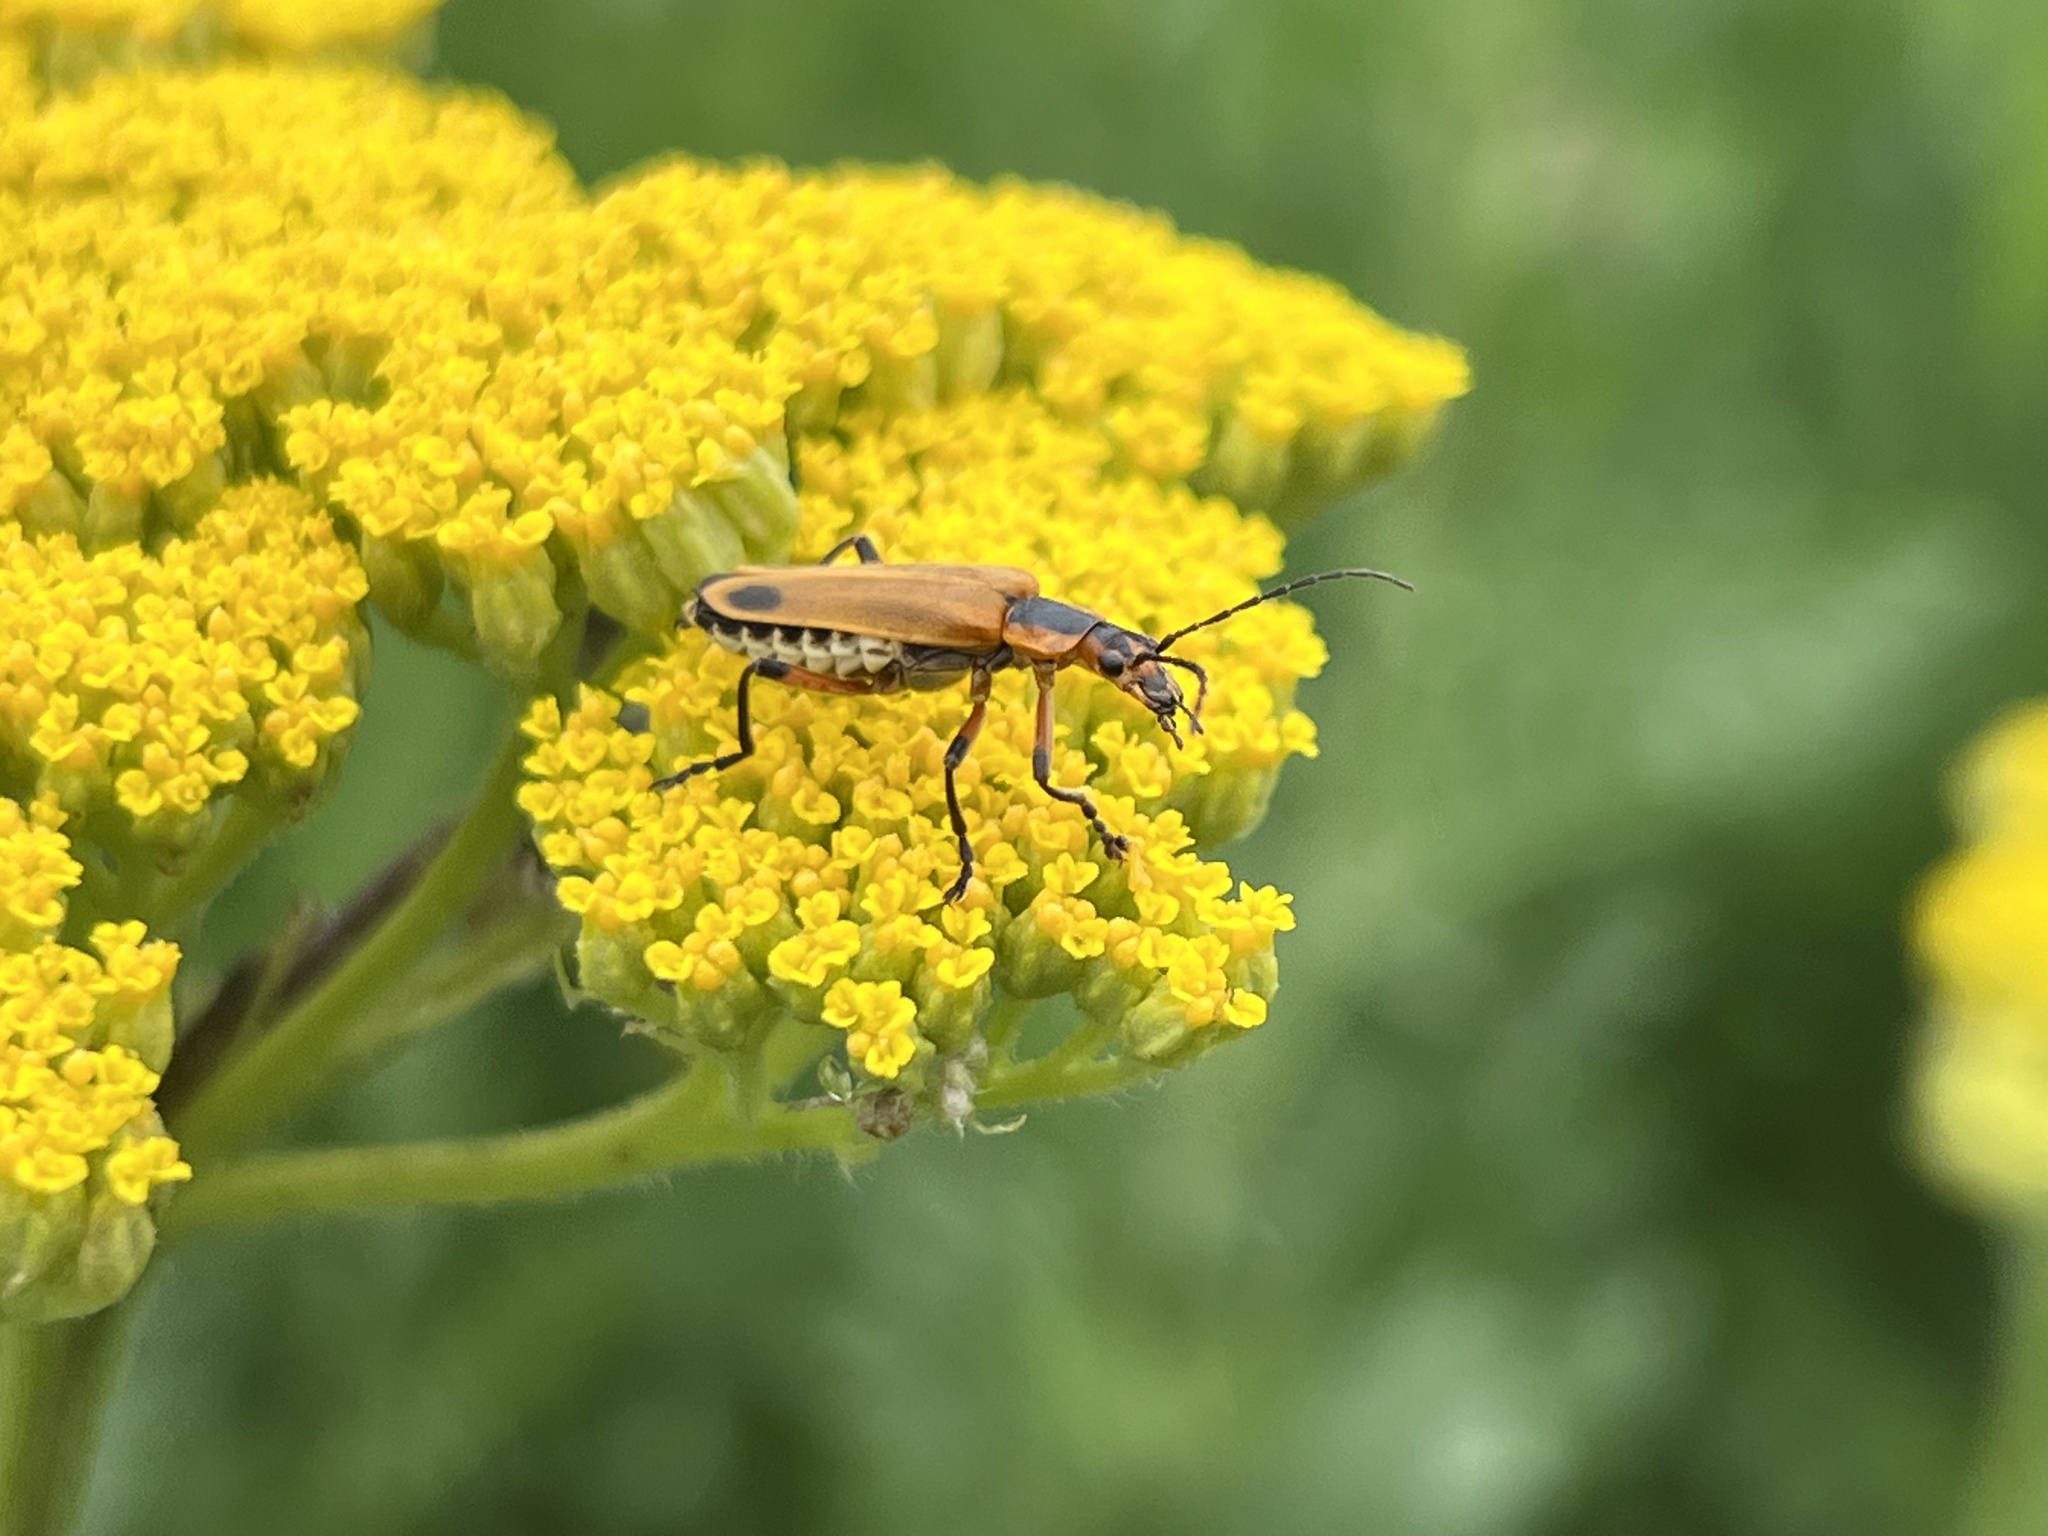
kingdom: Animalia
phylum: Arthropoda
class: Insecta
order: Coleoptera
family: Cantharidae
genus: Chauliognathus
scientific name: Chauliognathus marginatus
